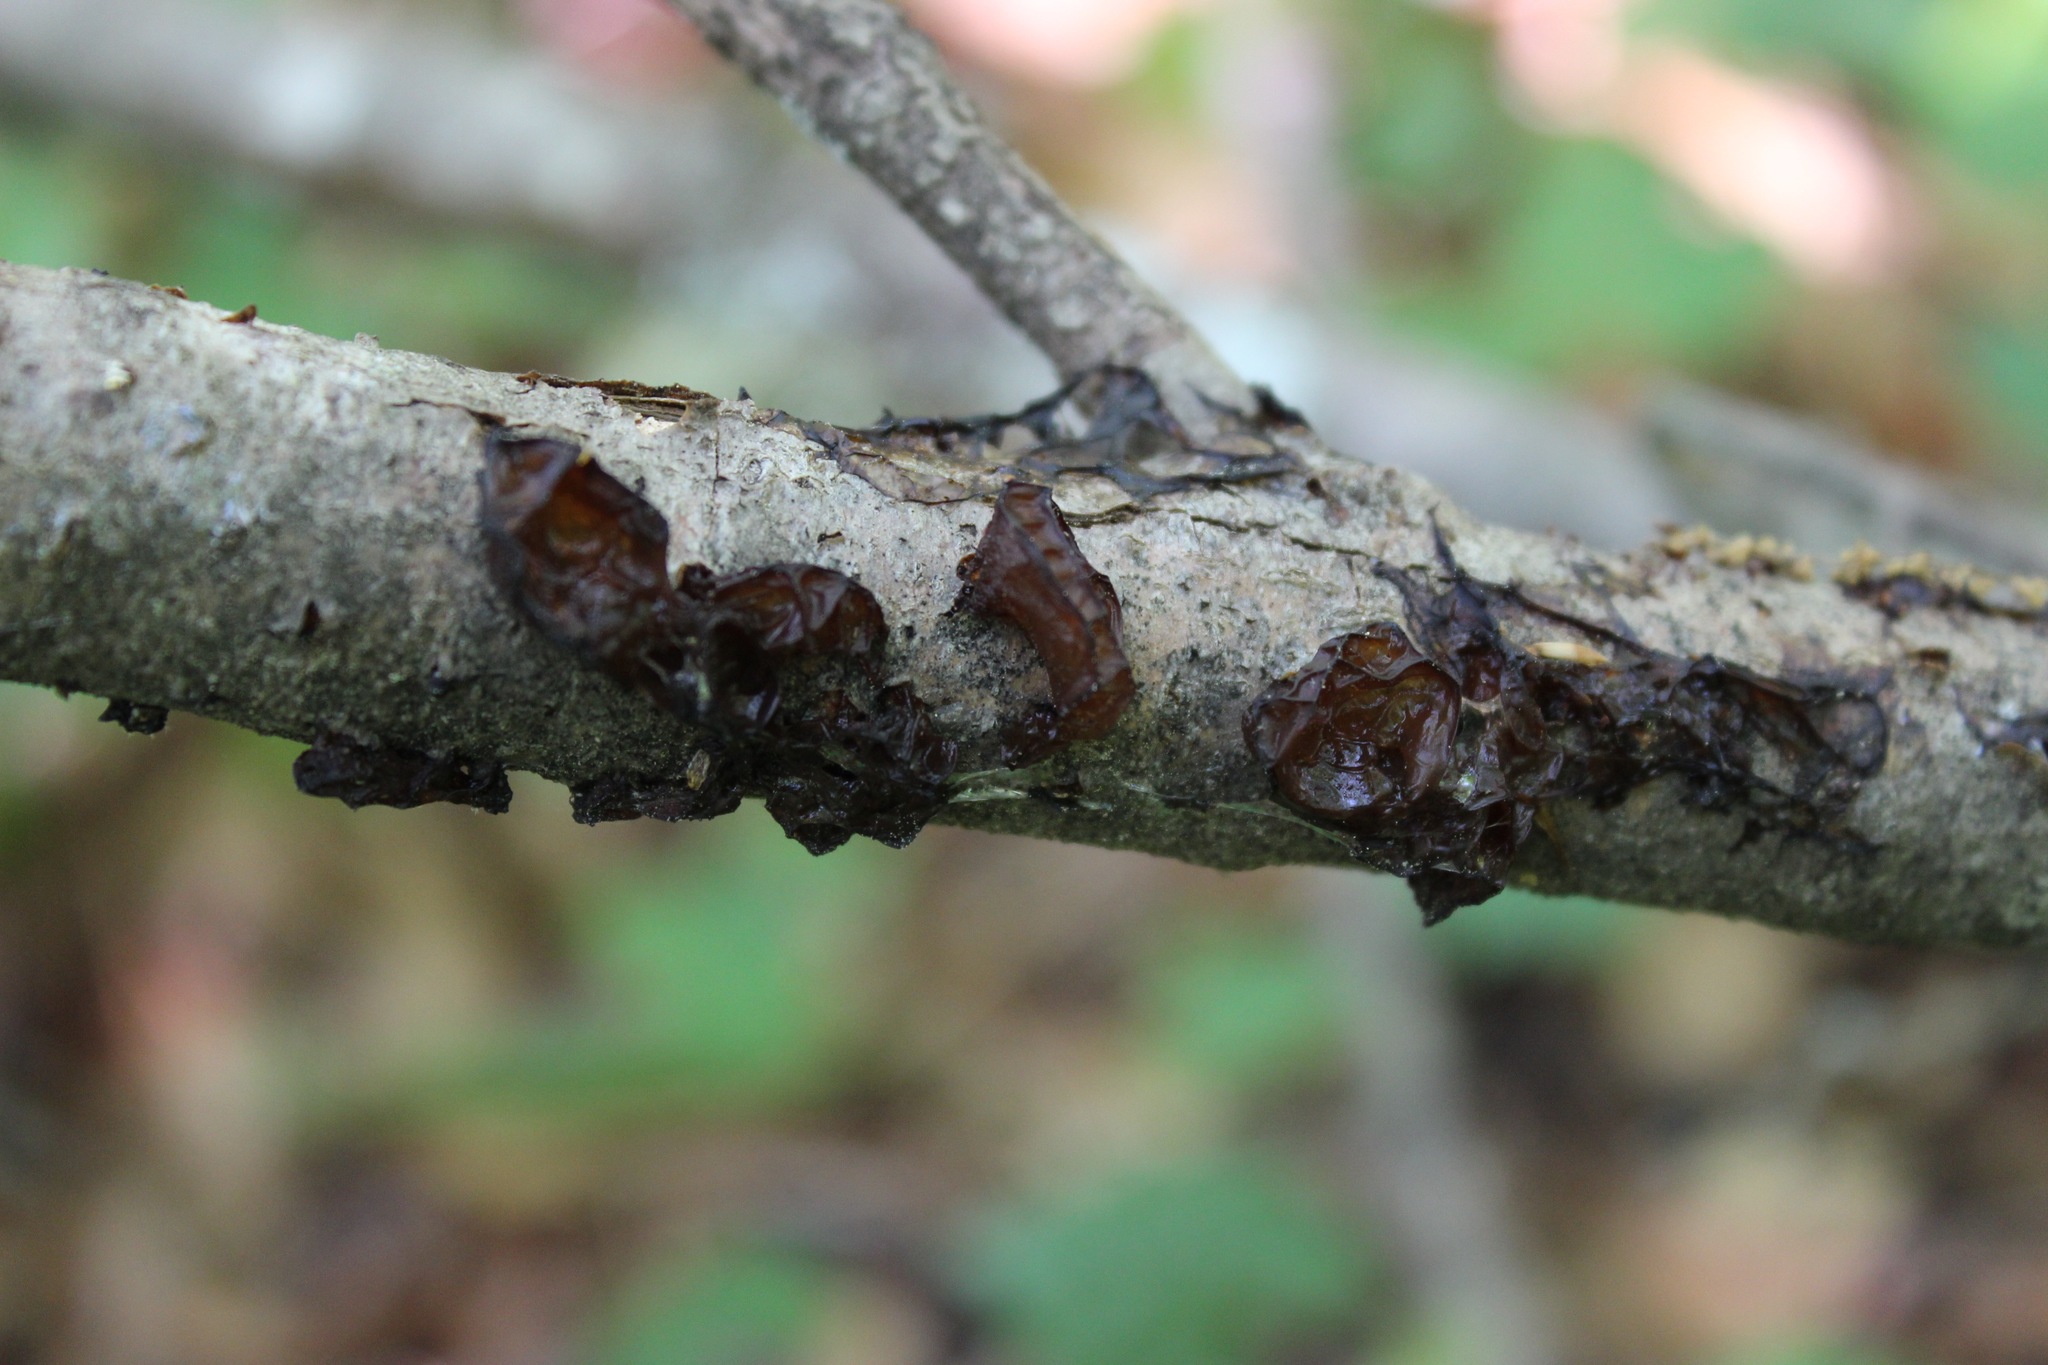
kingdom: Fungi
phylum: Basidiomycota
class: Agaricomycetes
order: Auriculariales
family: Auriculariaceae
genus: Exidia
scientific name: Exidia
